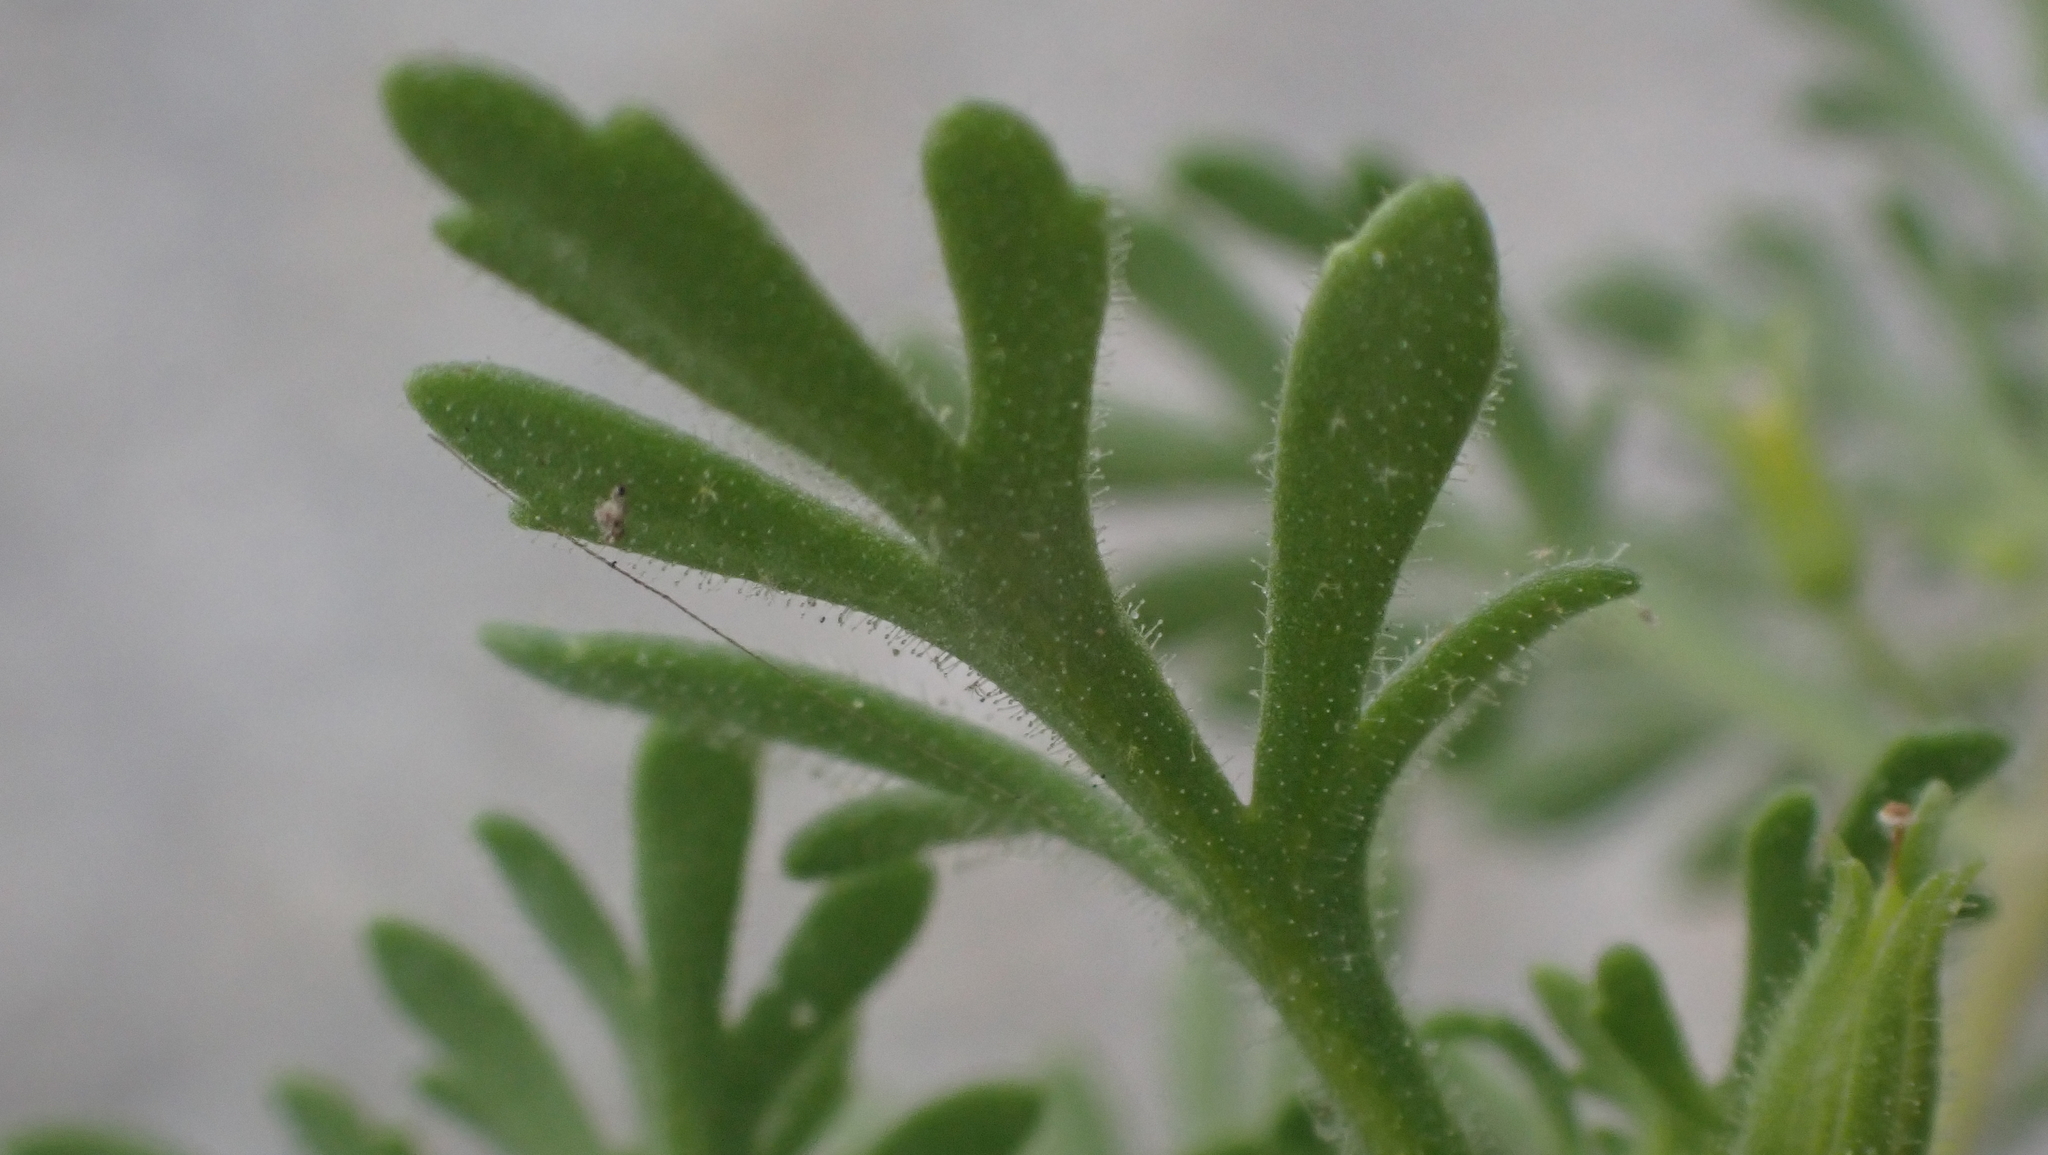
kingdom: Plantae
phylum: Tracheophyta
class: Magnoliopsida
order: Lamiales
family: Plantaginaceae
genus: Leucospora
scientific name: Leucospora multifida
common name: Narrow-leaf paleseed
